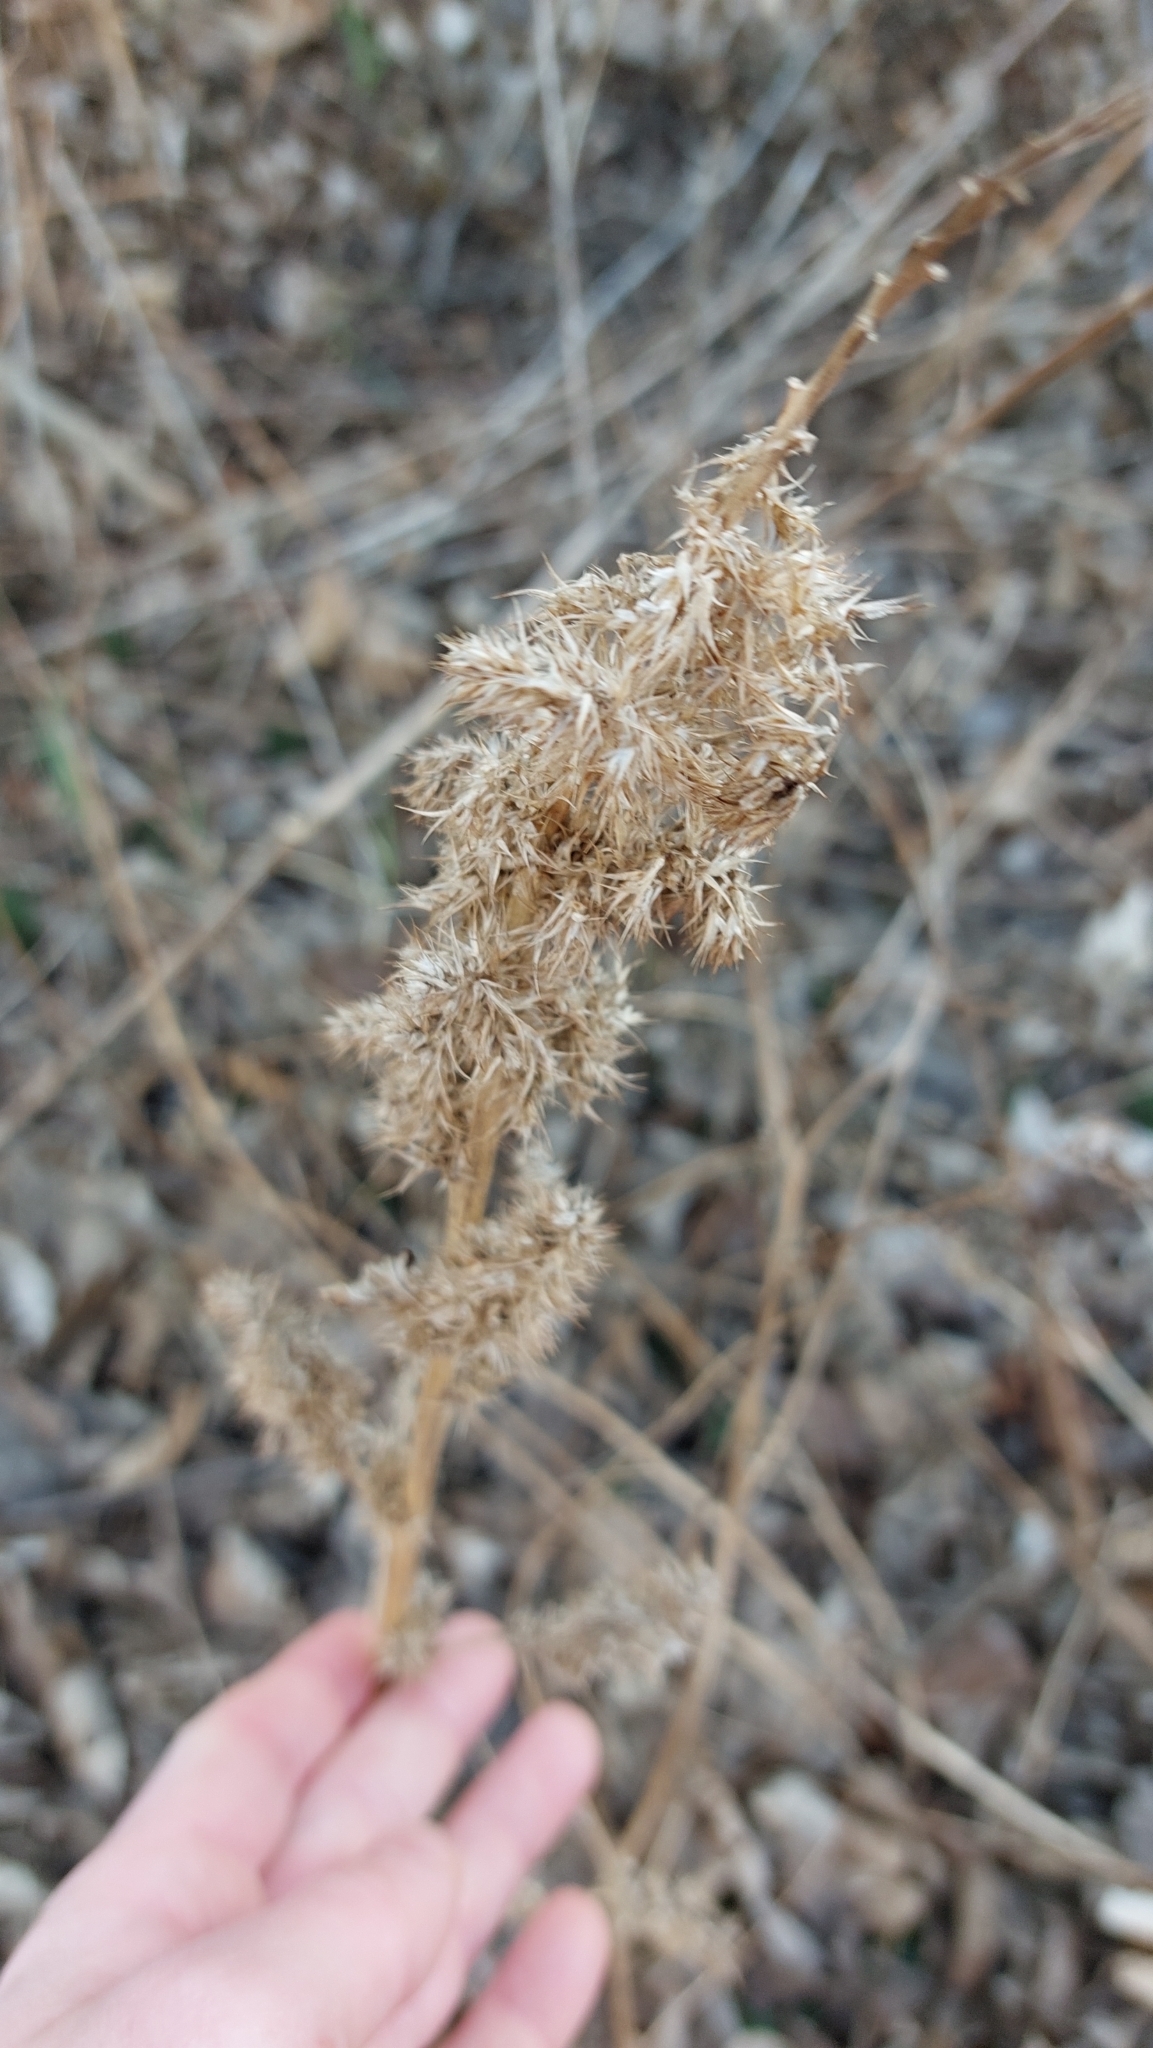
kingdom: Plantae
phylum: Tracheophyta
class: Magnoliopsida
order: Caryophyllales
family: Amaranthaceae
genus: Amaranthus
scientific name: Amaranthus retroflexus
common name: Redroot amaranth
